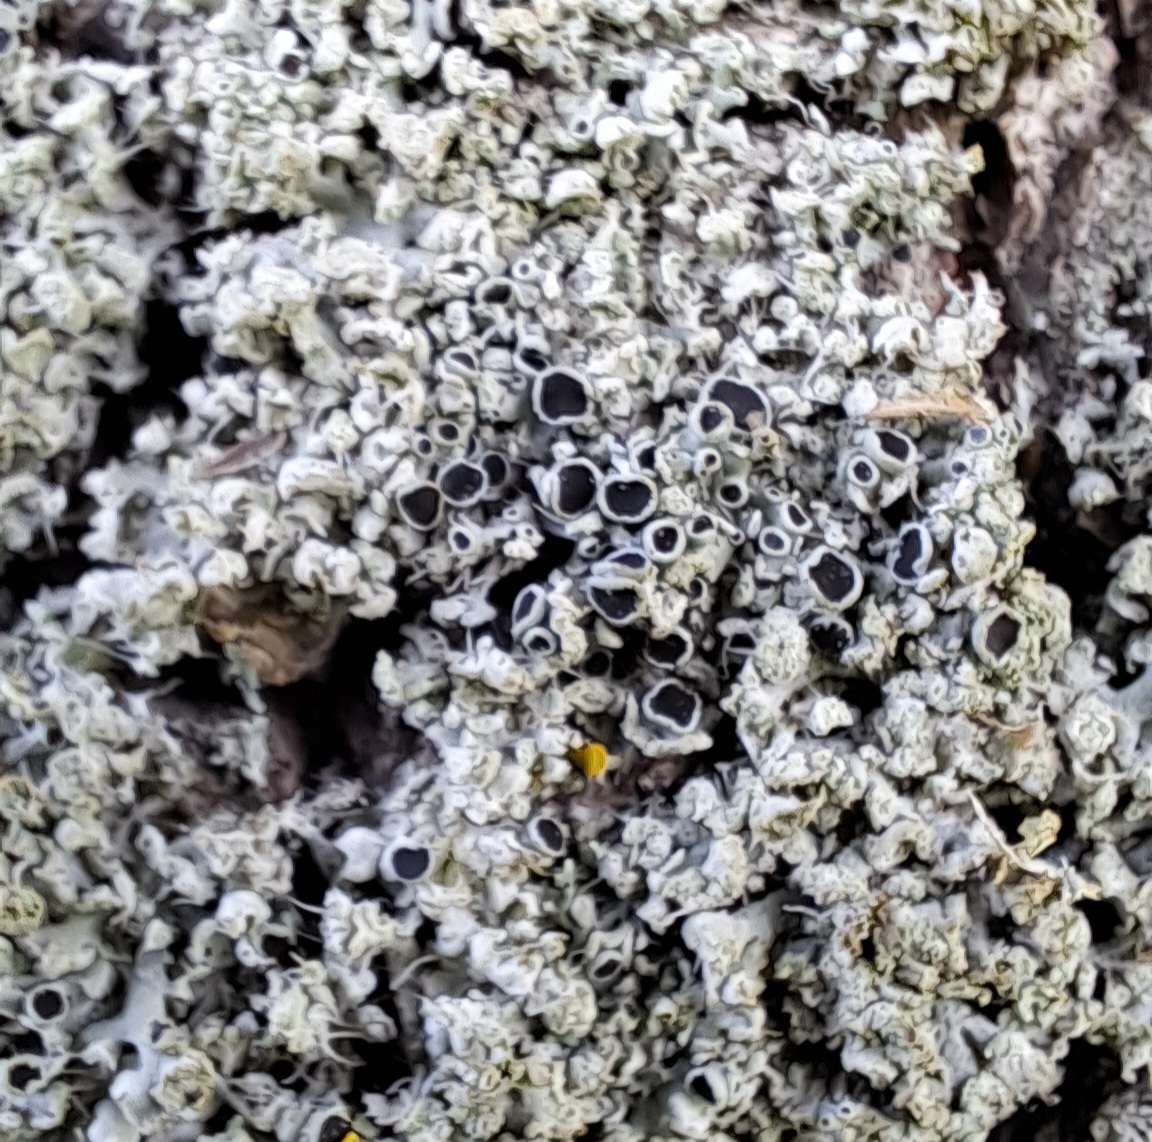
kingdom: Fungi
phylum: Ascomycota
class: Lecanoromycetes
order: Caliciales
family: Physciaceae
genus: Physcia
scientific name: Physcia adscendens
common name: Hooded rosette lichen
